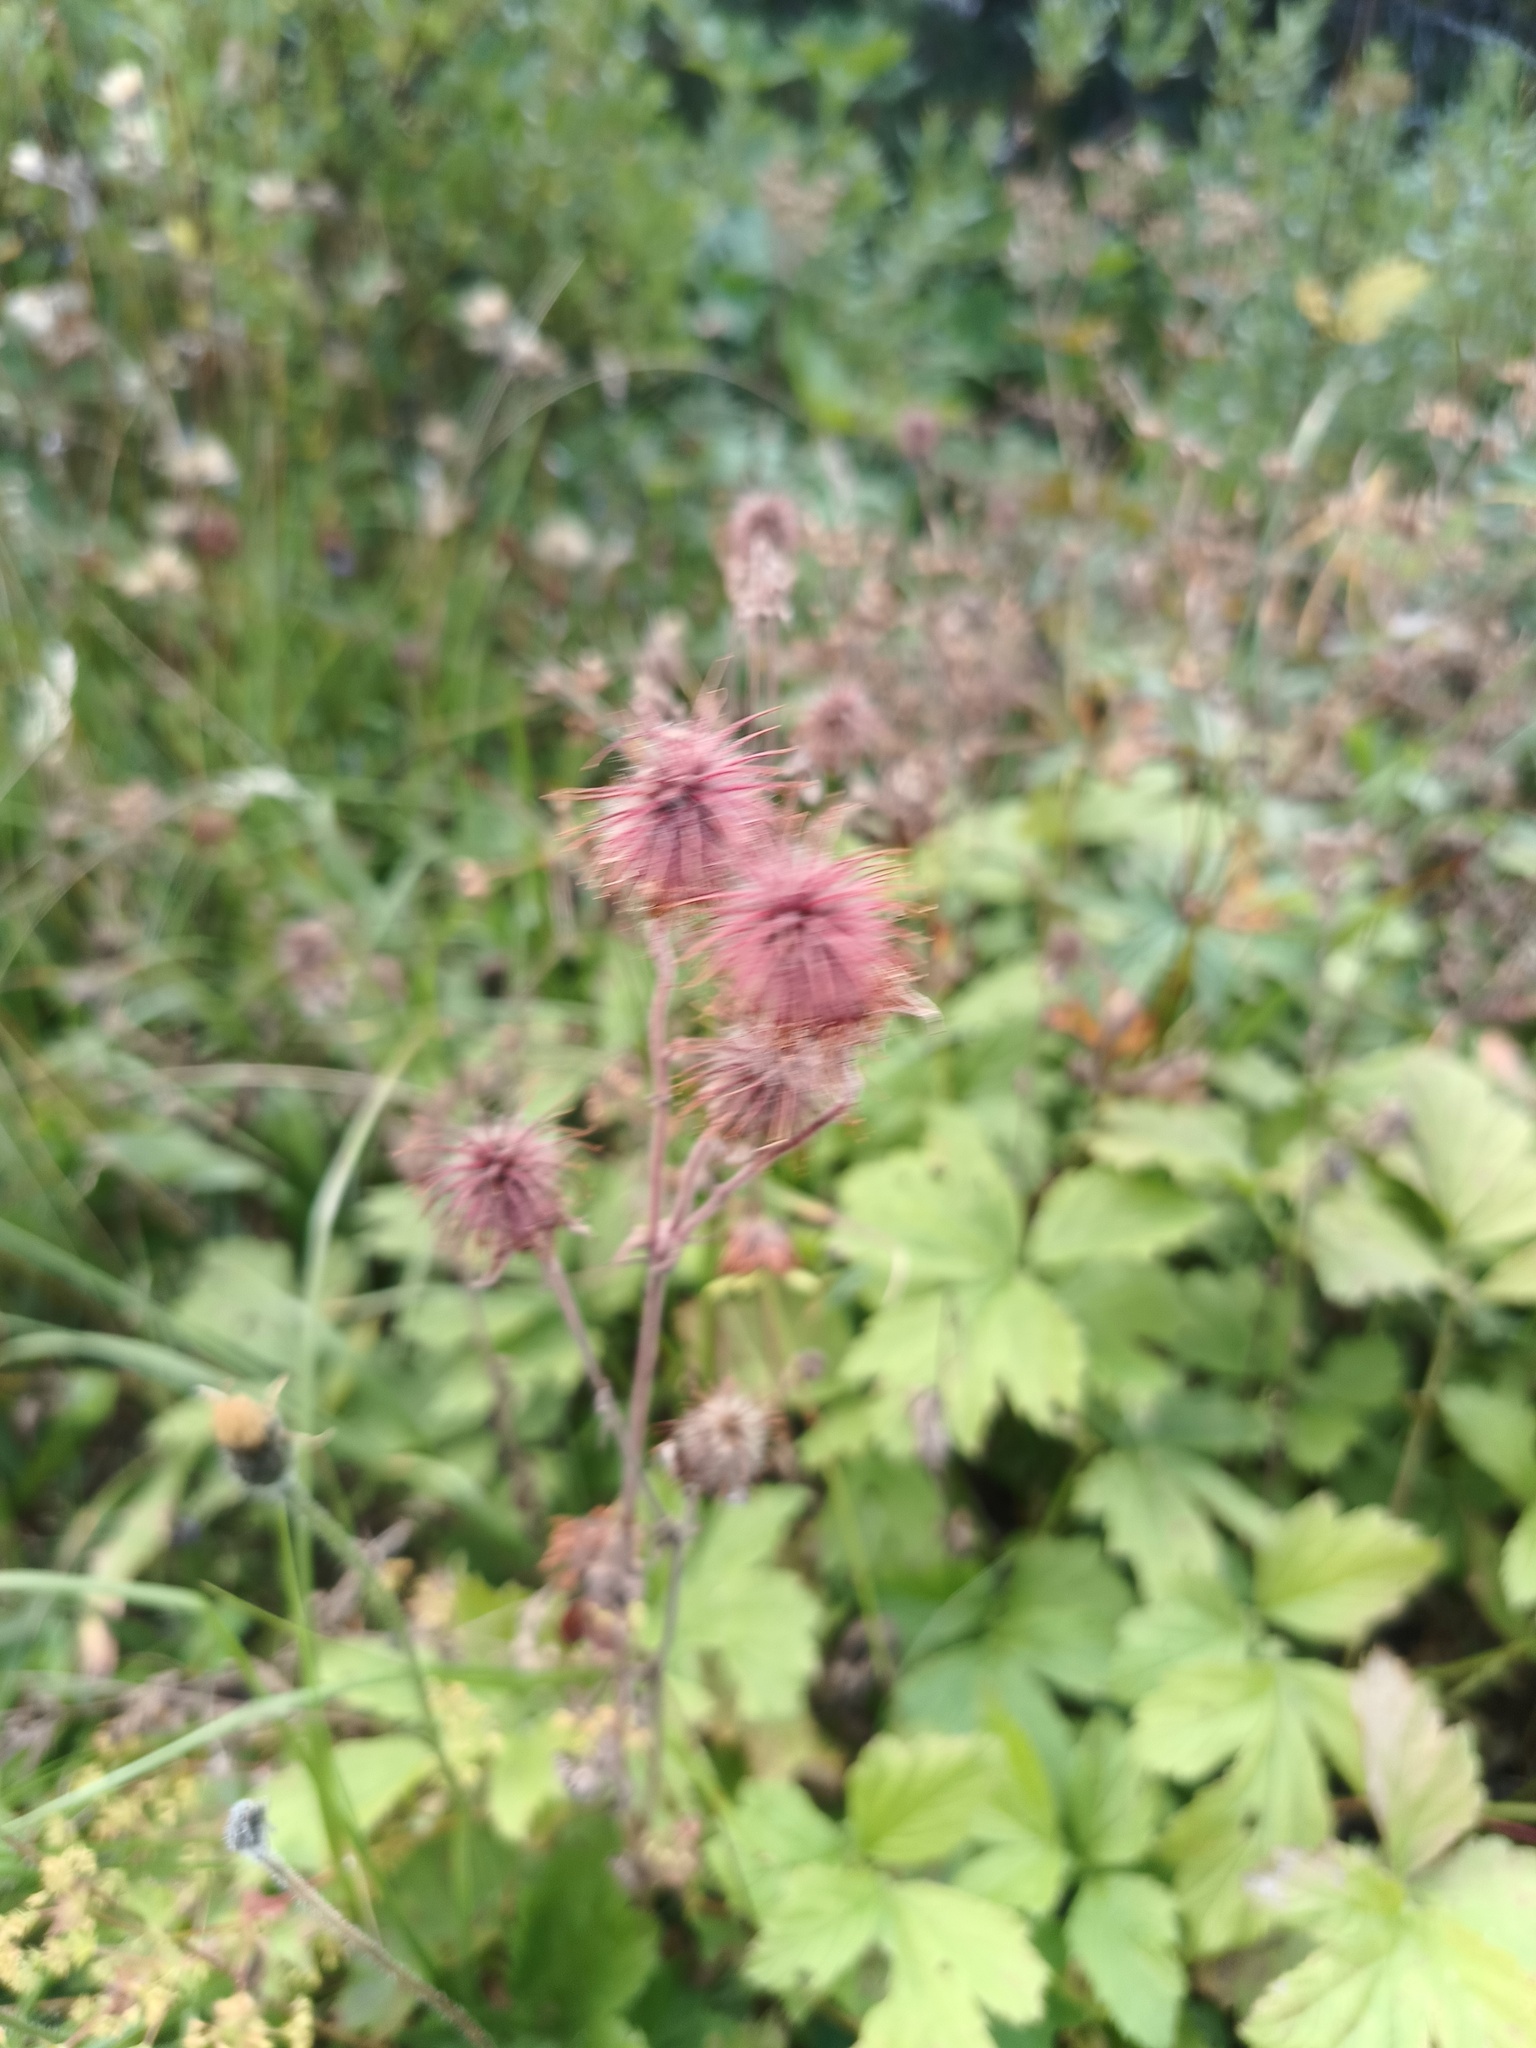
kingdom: Plantae
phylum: Tracheophyta
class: Magnoliopsida
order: Rosales
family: Rosaceae
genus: Geum
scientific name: Geum rivale
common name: Water avens
